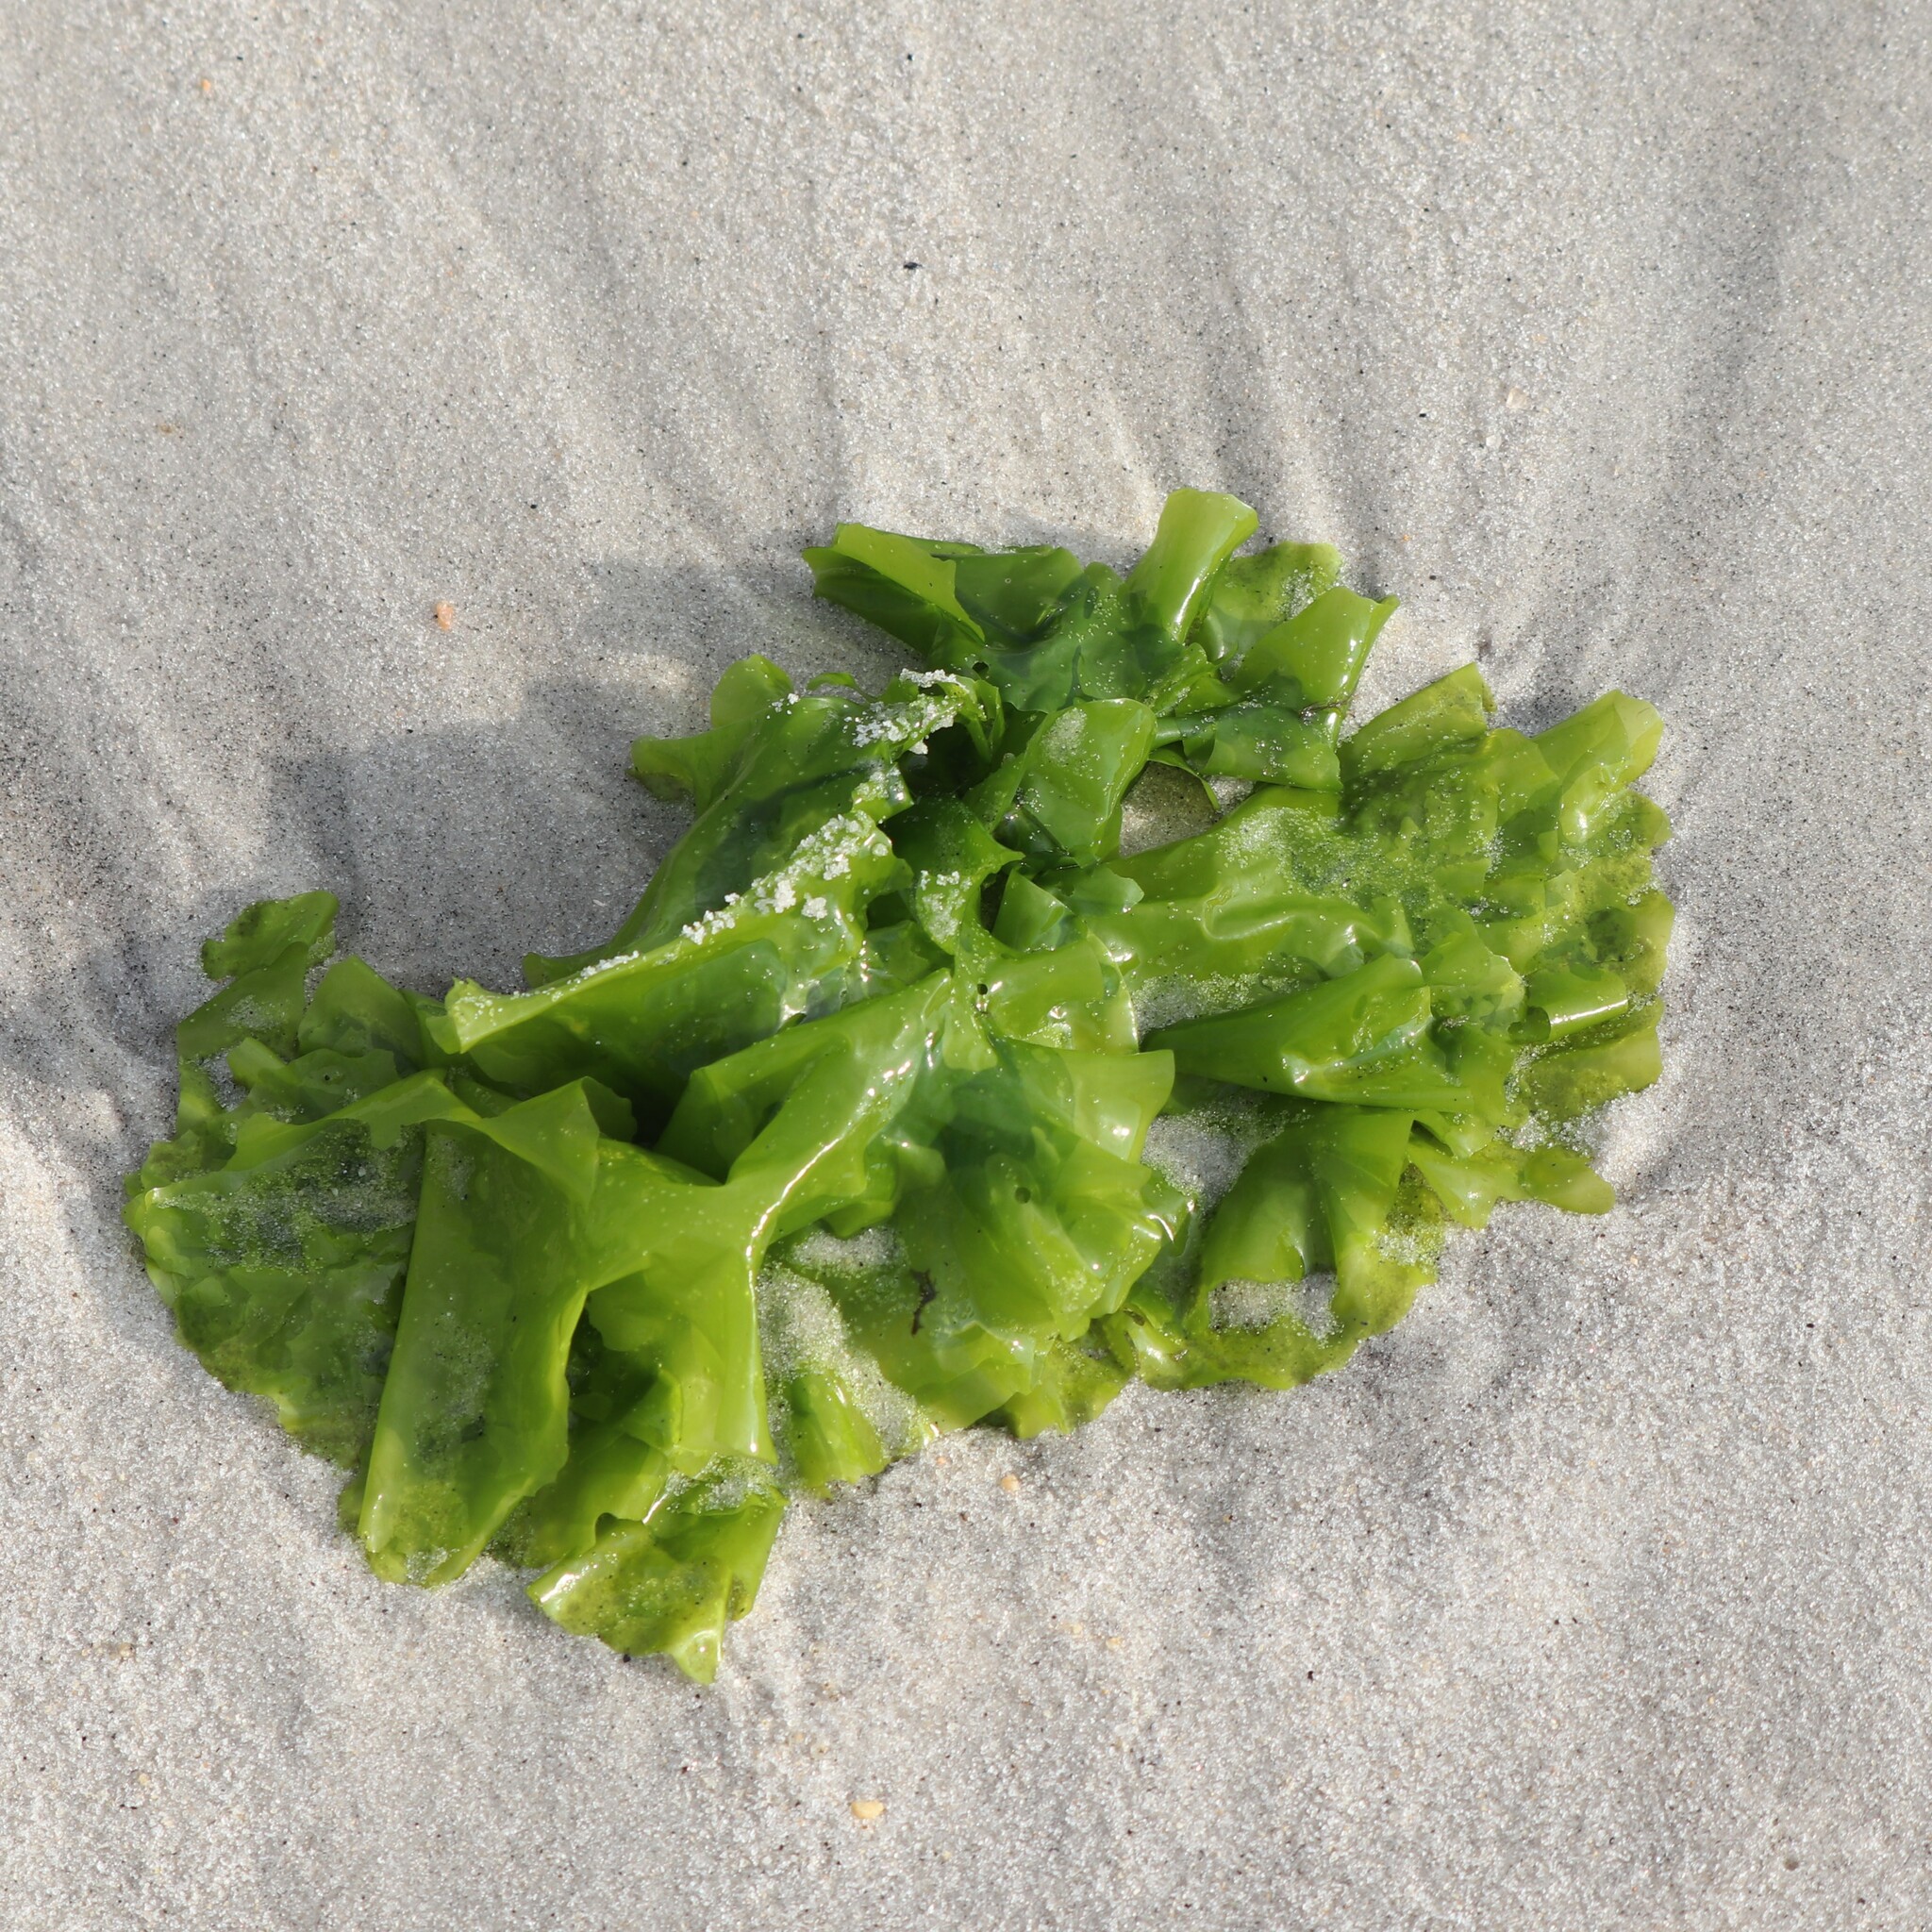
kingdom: Plantae
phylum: Chlorophyta
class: Ulvophyceae
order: Ulvales
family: Ulvaceae
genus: Ulva
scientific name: Ulva lactuca
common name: Sea lettuce
